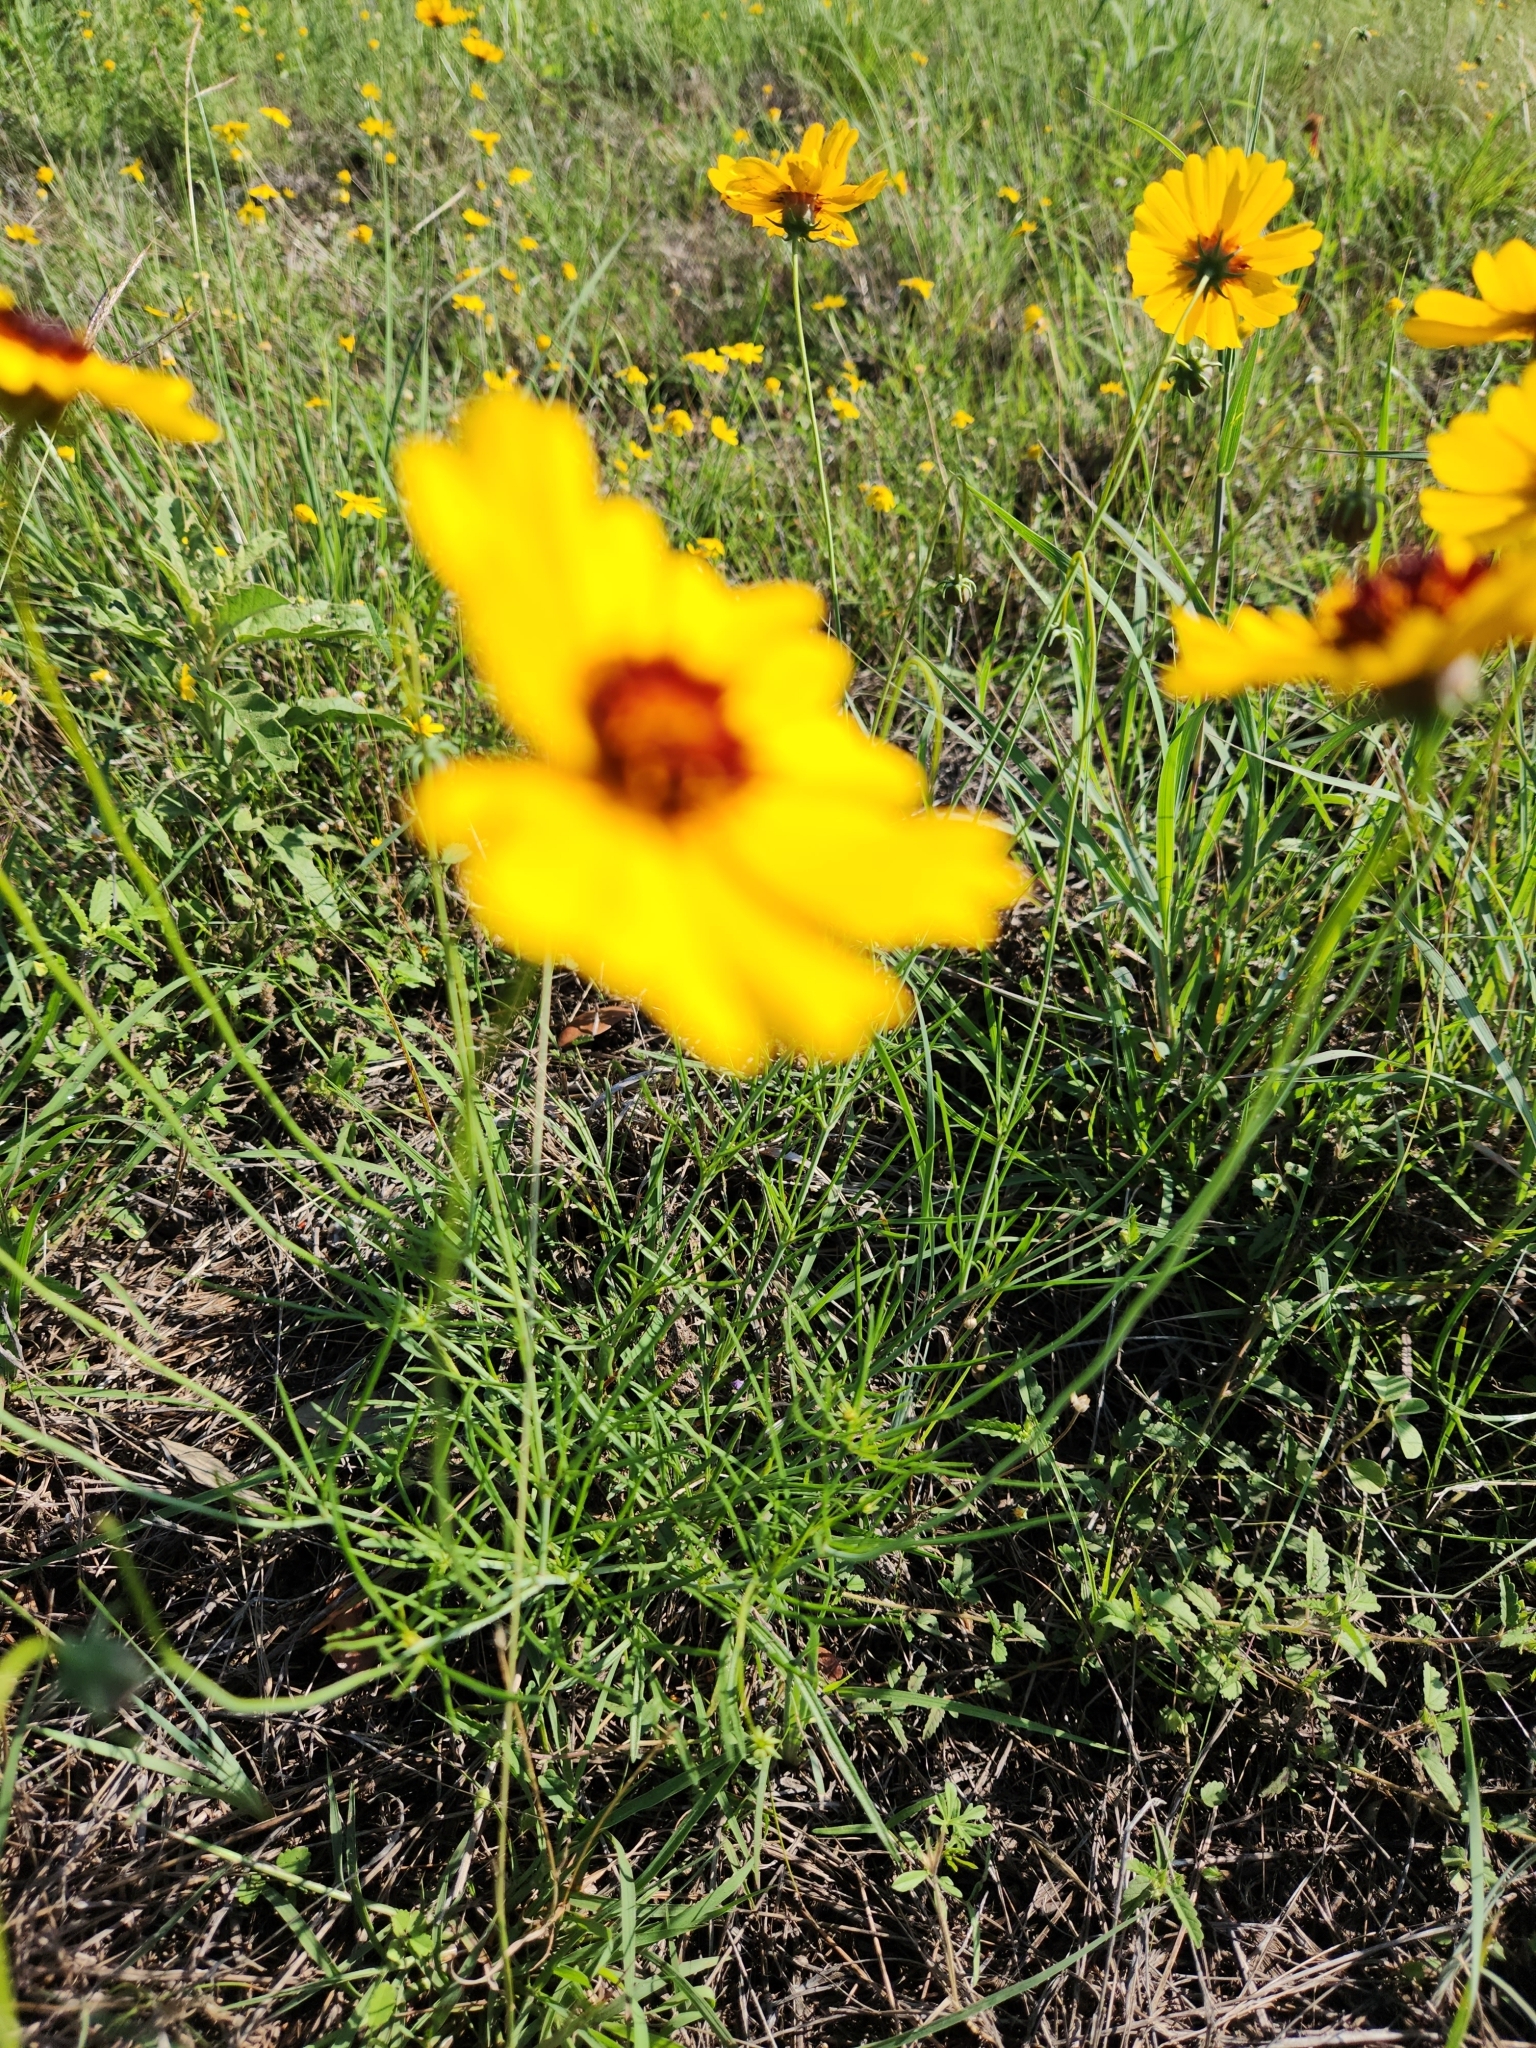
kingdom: Plantae
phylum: Tracheophyta
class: Magnoliopsida
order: Asterales
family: Asteraceae
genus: Thelesperma
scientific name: Thelesperma filifolium
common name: Stiff greenthread
